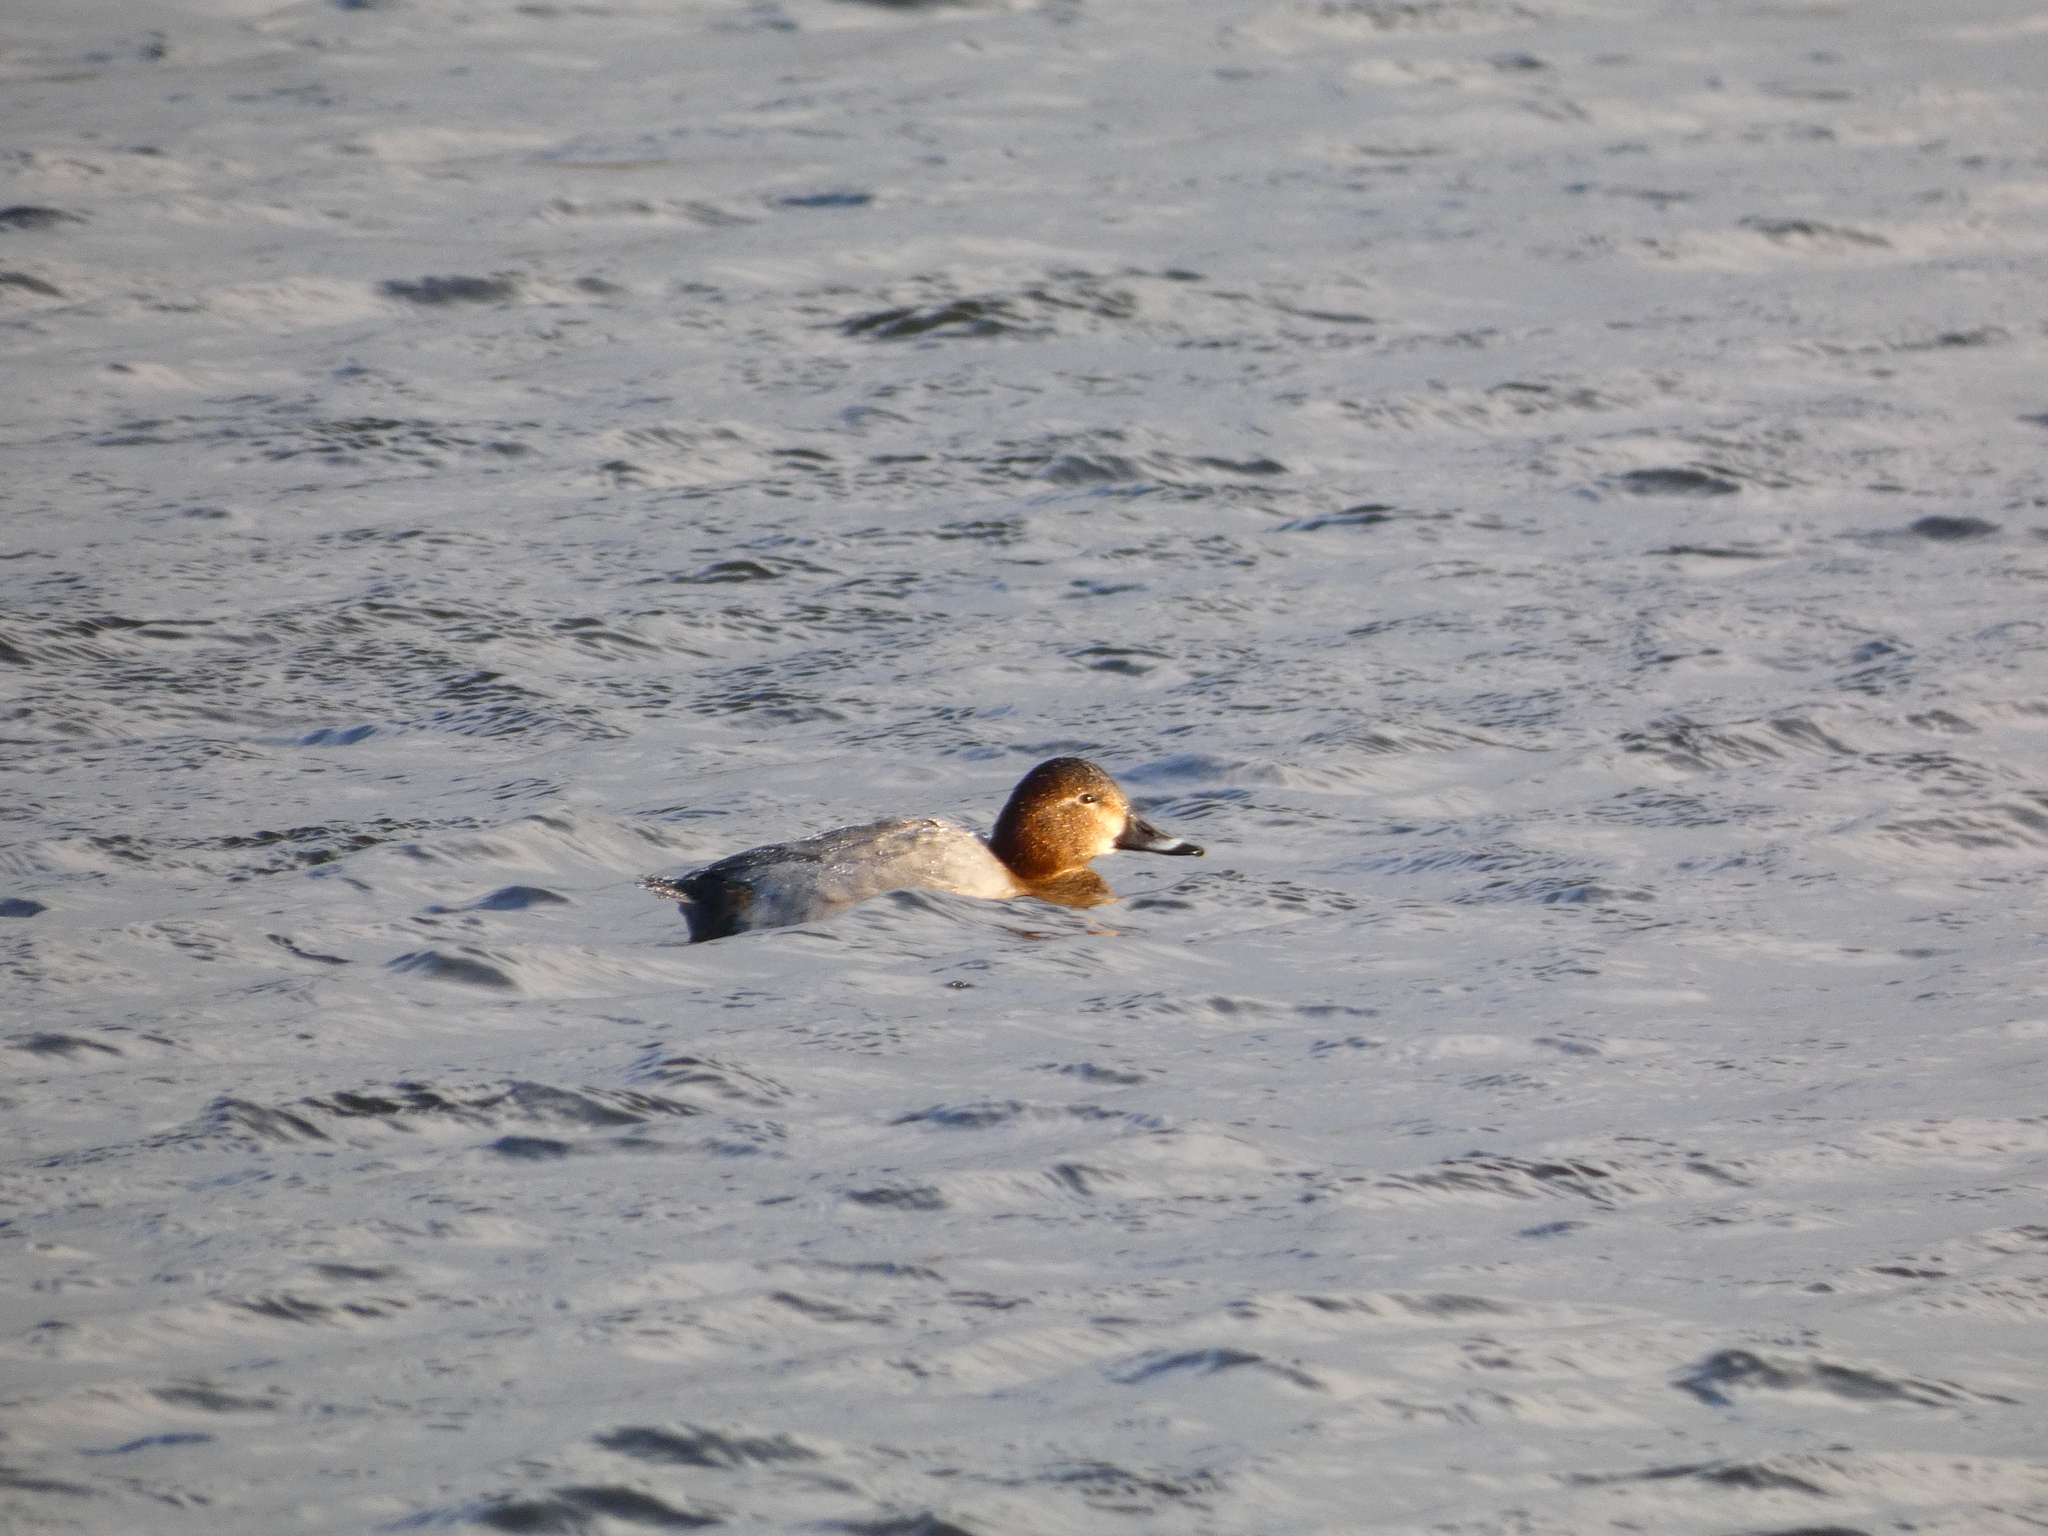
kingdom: Animalia
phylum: Chordata
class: Aves
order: Anseriformes
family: Anatidae
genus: Aythya
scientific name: Aythya ferina
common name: Common pochard
